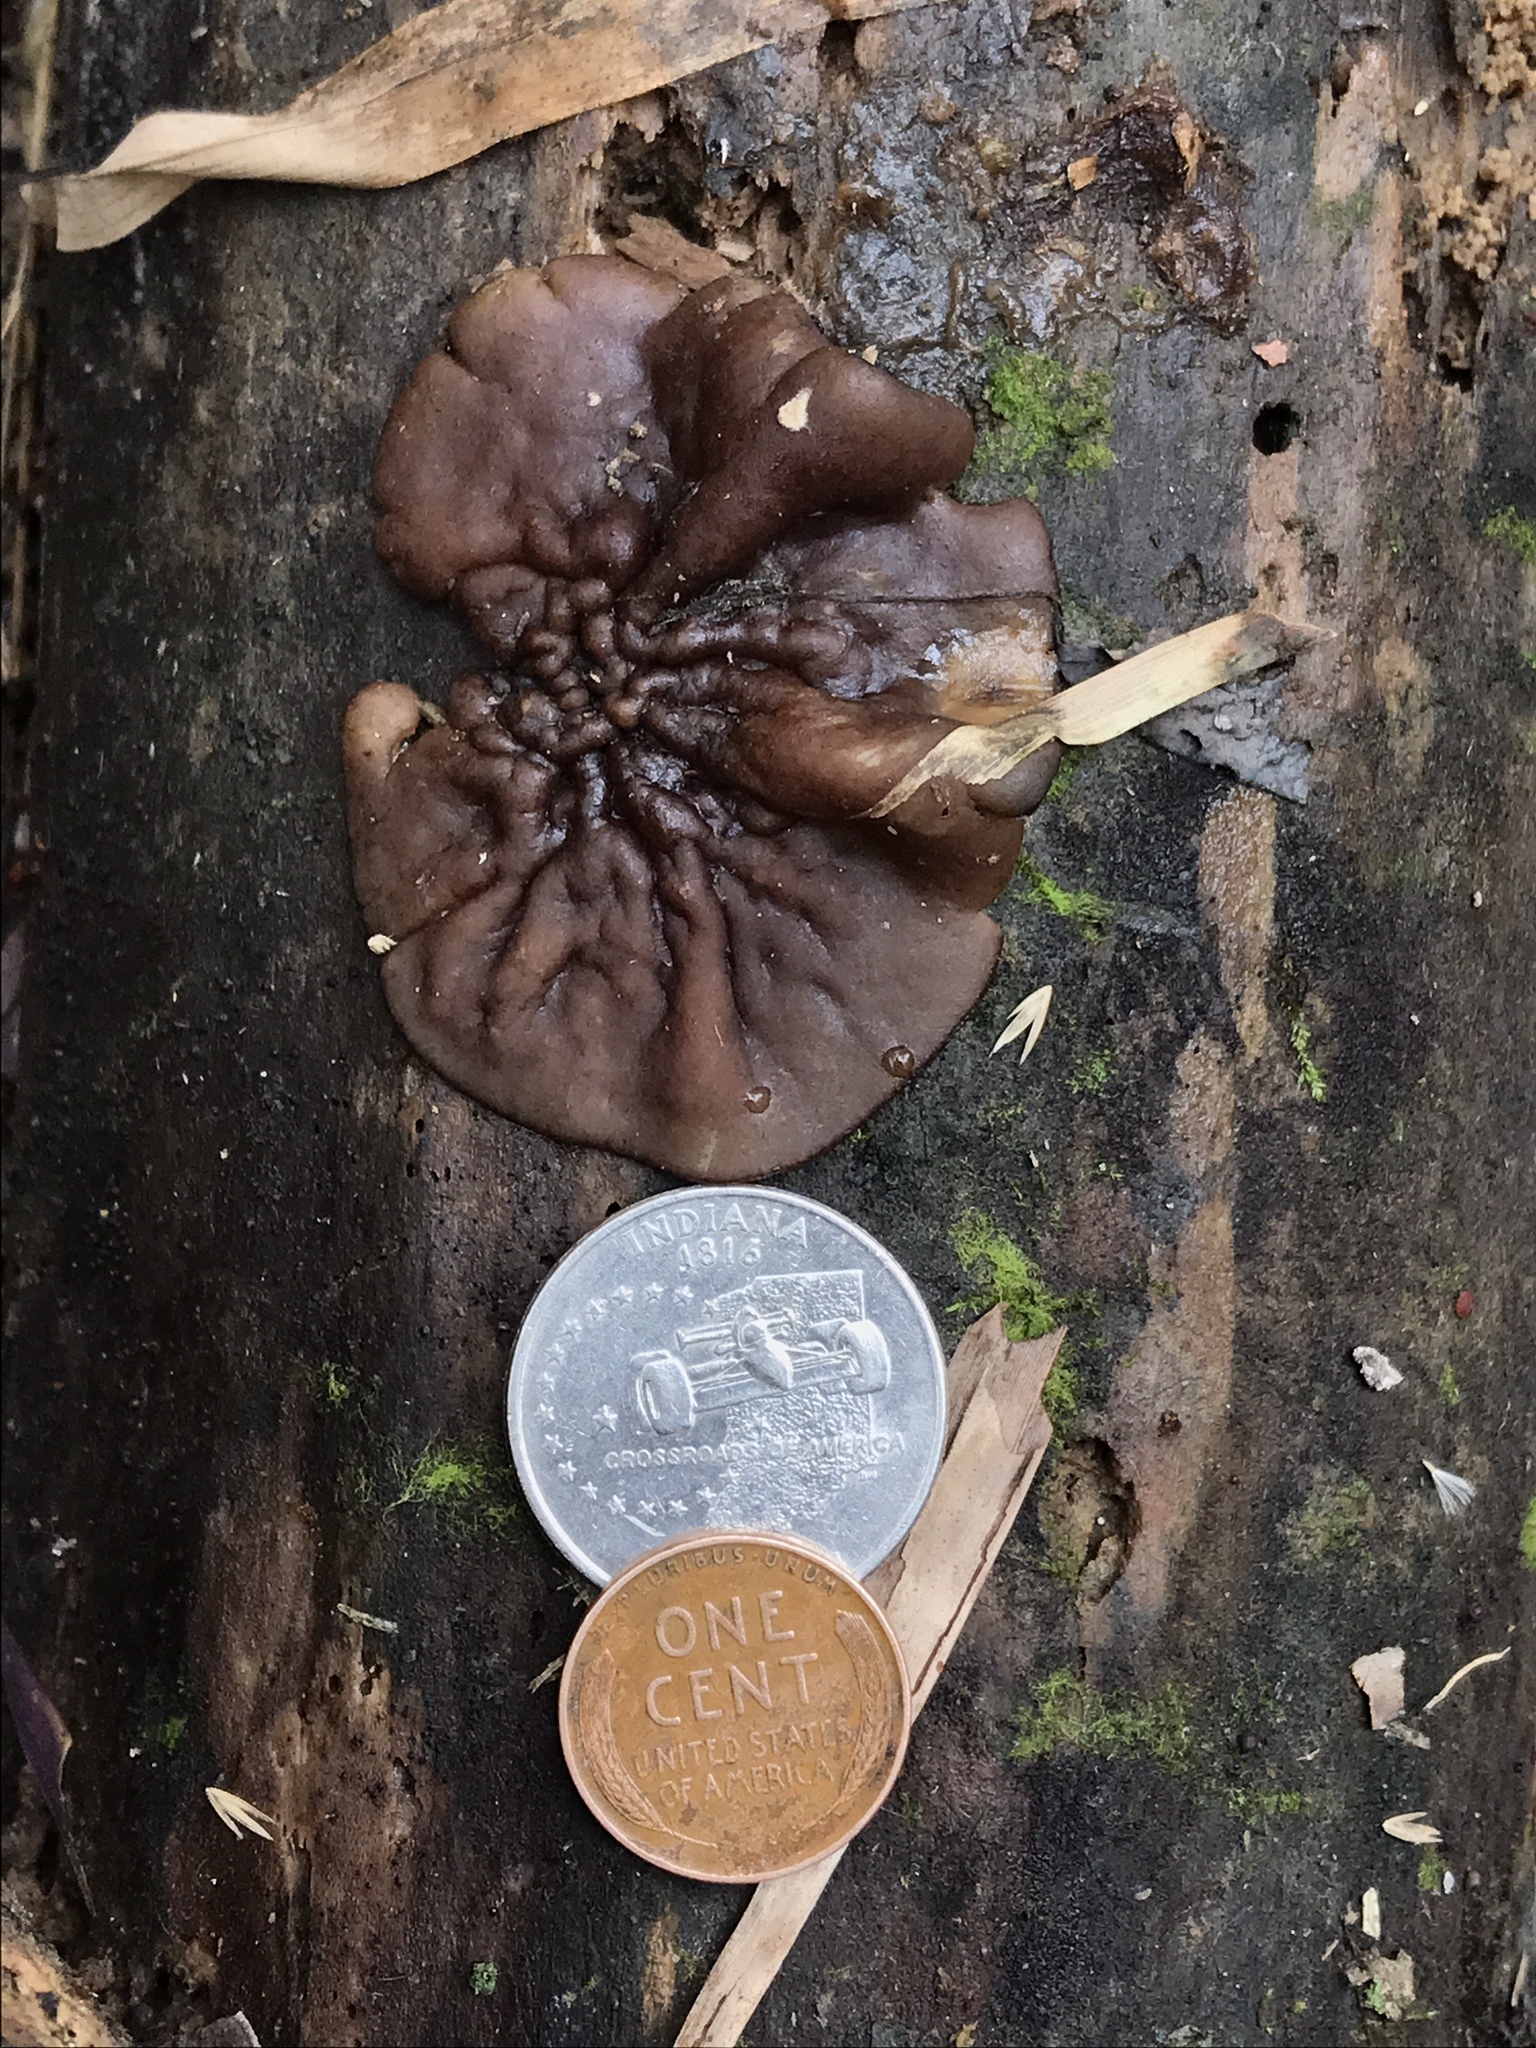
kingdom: Fungi
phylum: Ascomycota
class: Pezizomycetes
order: Pezizales
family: Pezizaceae
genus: Pachyella
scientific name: Pachyella clypeata
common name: Copper penny fungus
